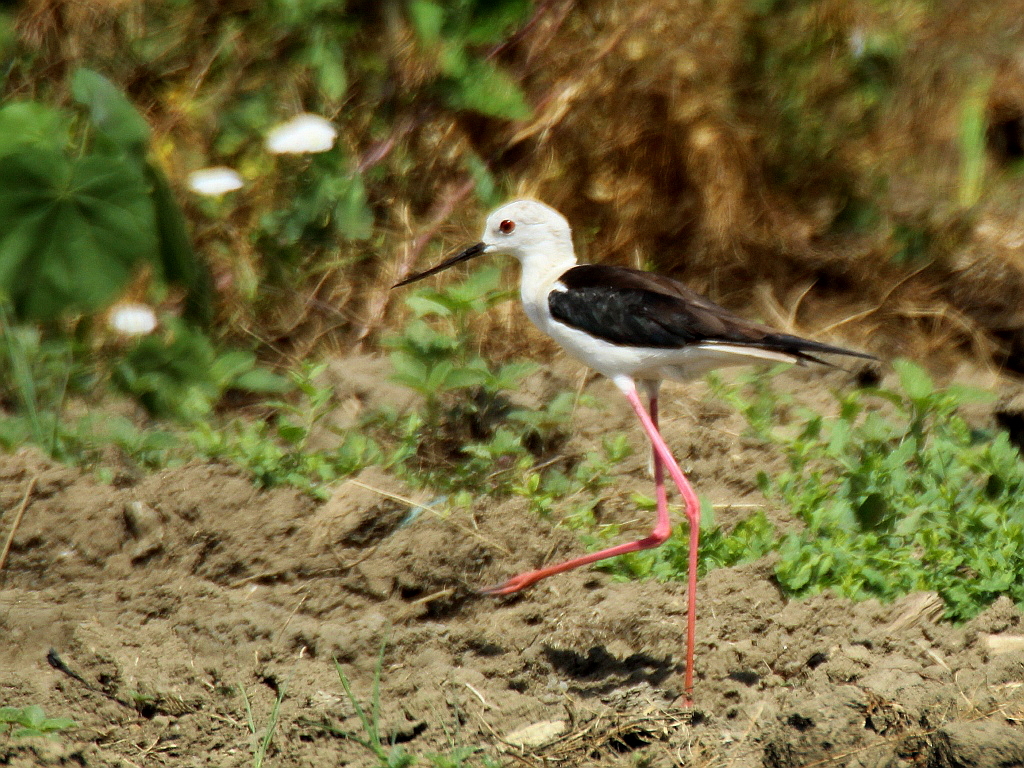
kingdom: Animalia
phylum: Chordata
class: Aves
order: Charadriiformes
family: Recurvirostridae
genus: Himantopus
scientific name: Himantopus himantopus
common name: Black-winged stilt
